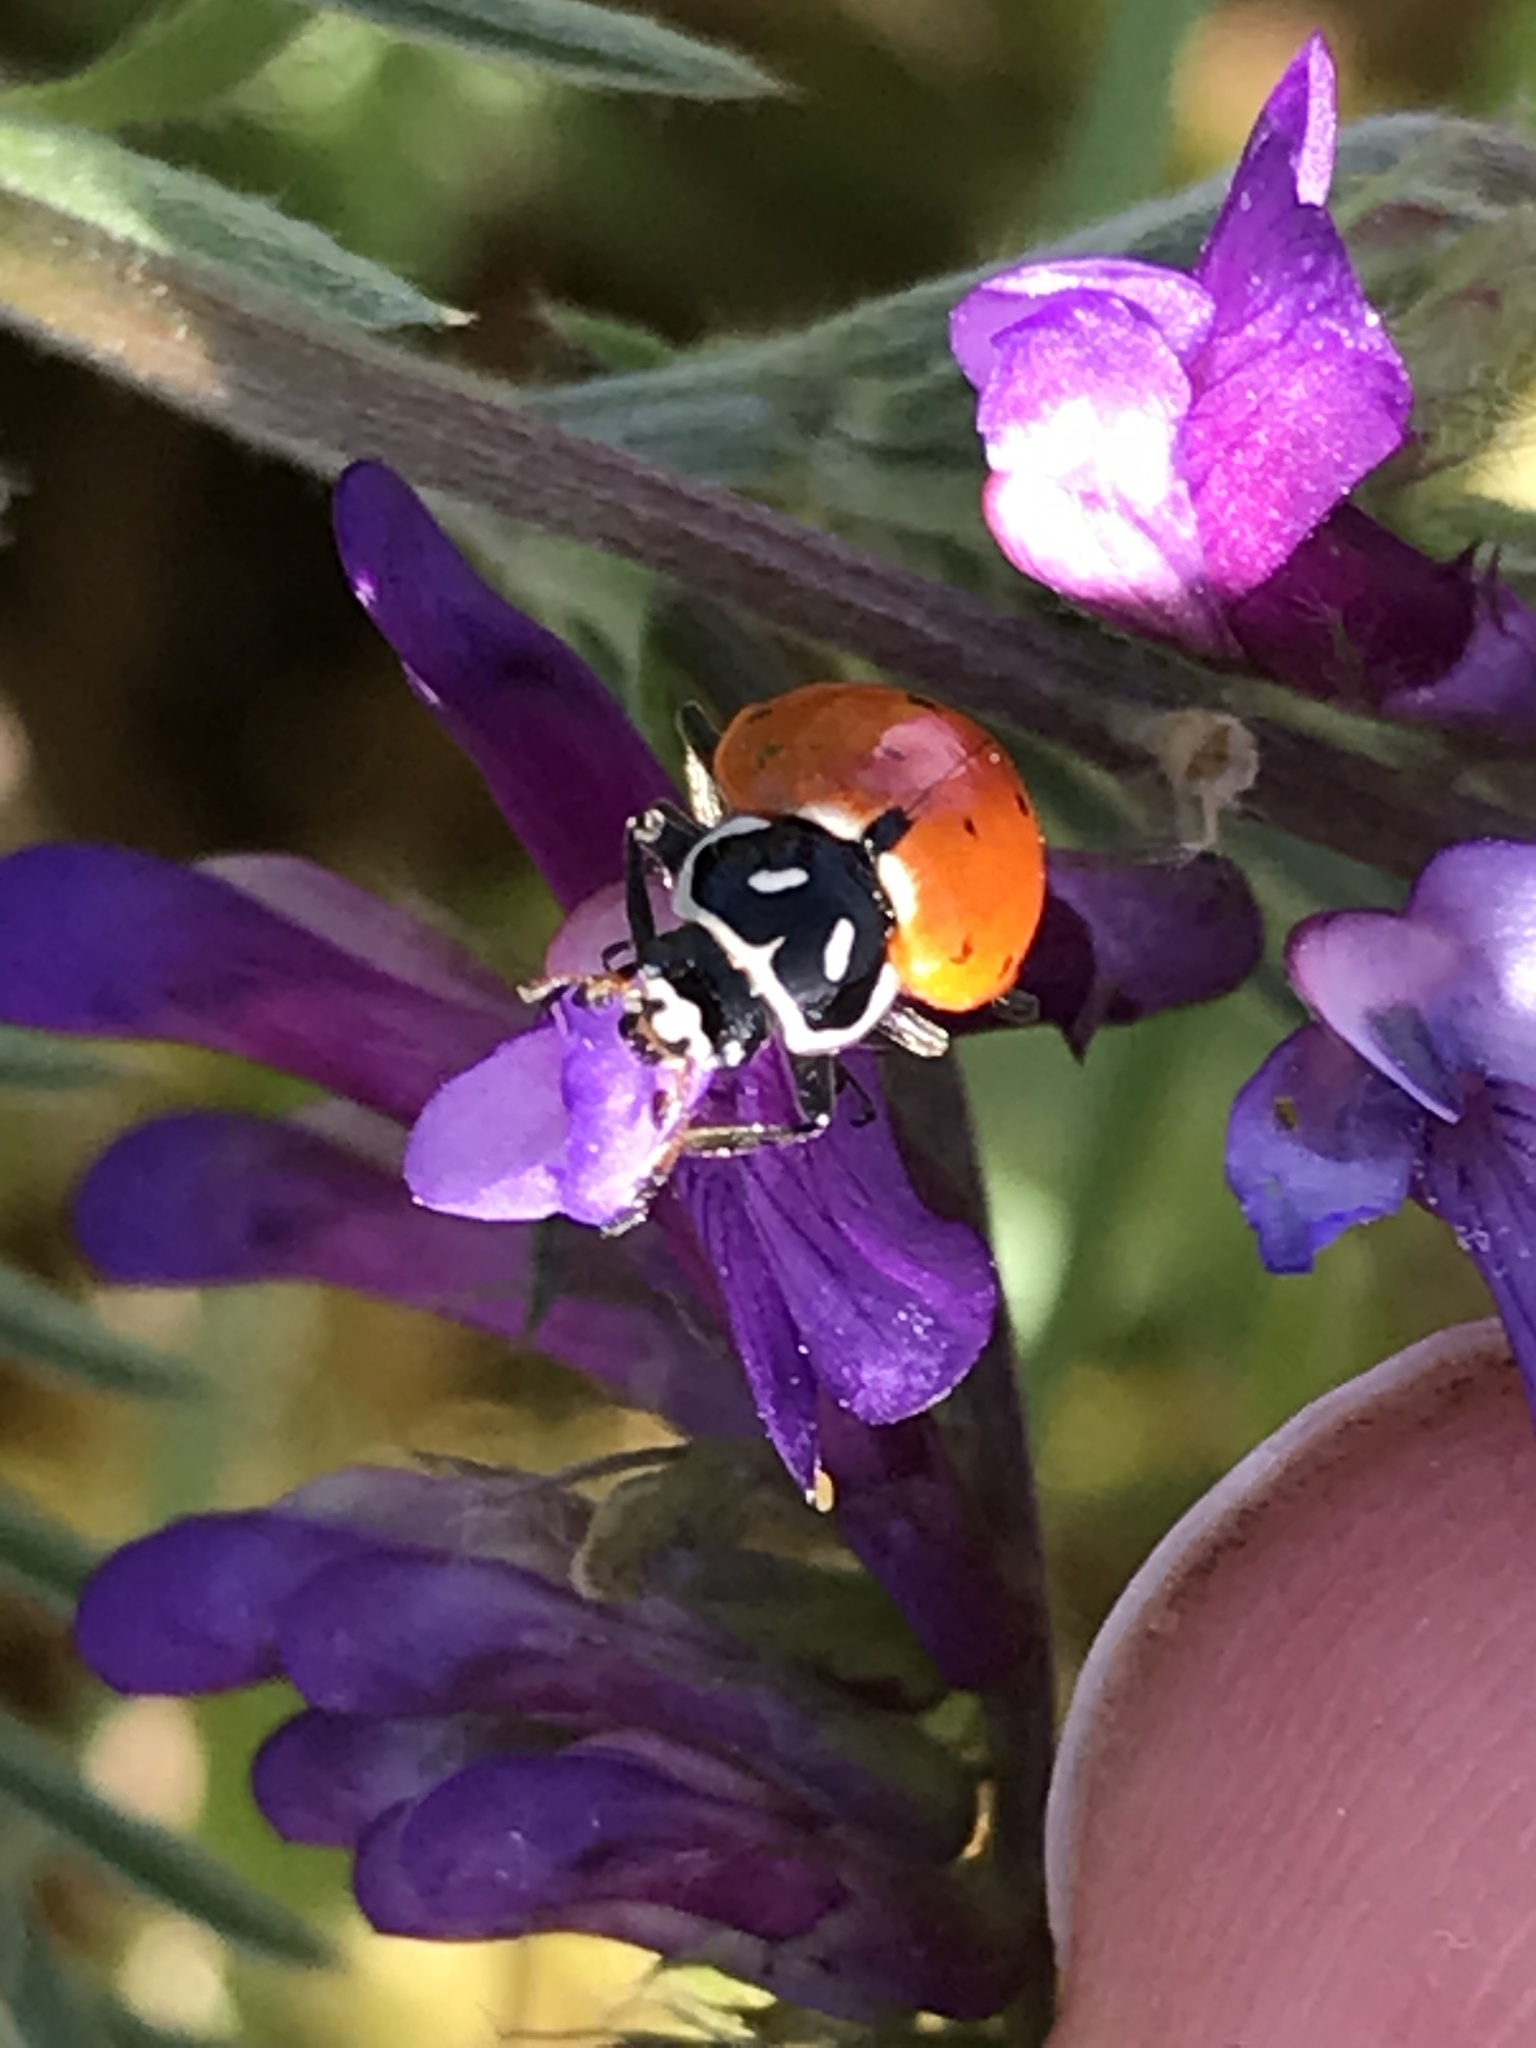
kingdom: Animalia
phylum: Arthropoda
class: Insecta
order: Coleoptera
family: Coccinellidae
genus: Hippodamia
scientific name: Hippodamia convergens
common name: Convergent lady beetle
